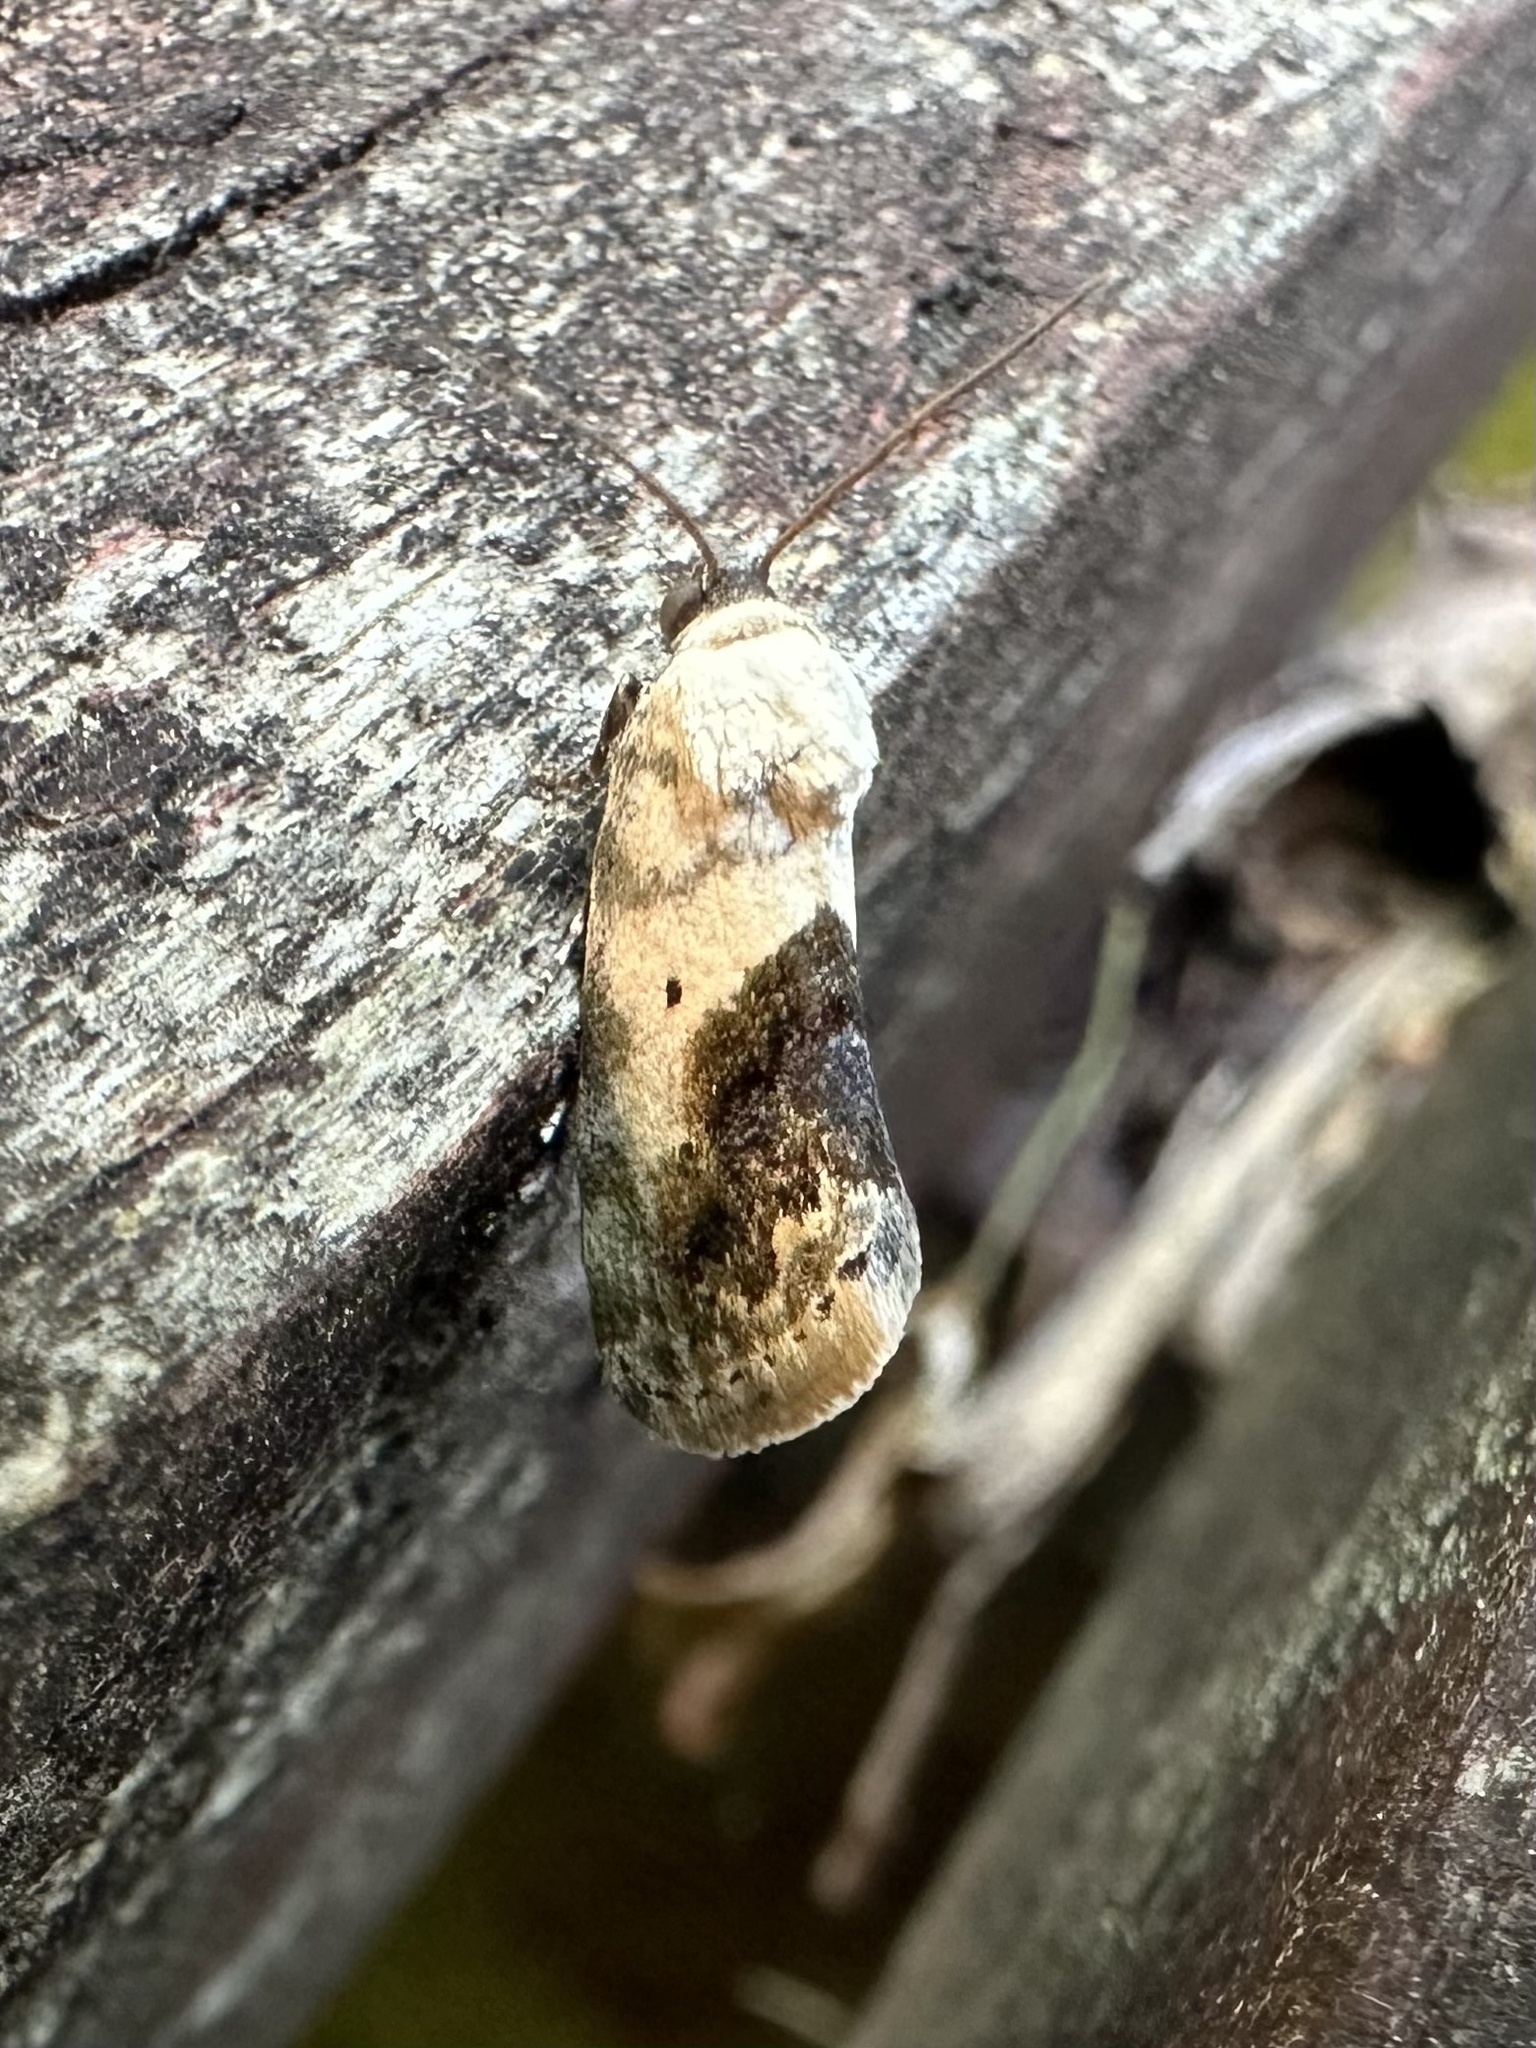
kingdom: Animalia
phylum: Arthropoda
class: Insecta
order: Lepidoptera
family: Noctuidae
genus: Acontia
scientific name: Acontia erastrioides
